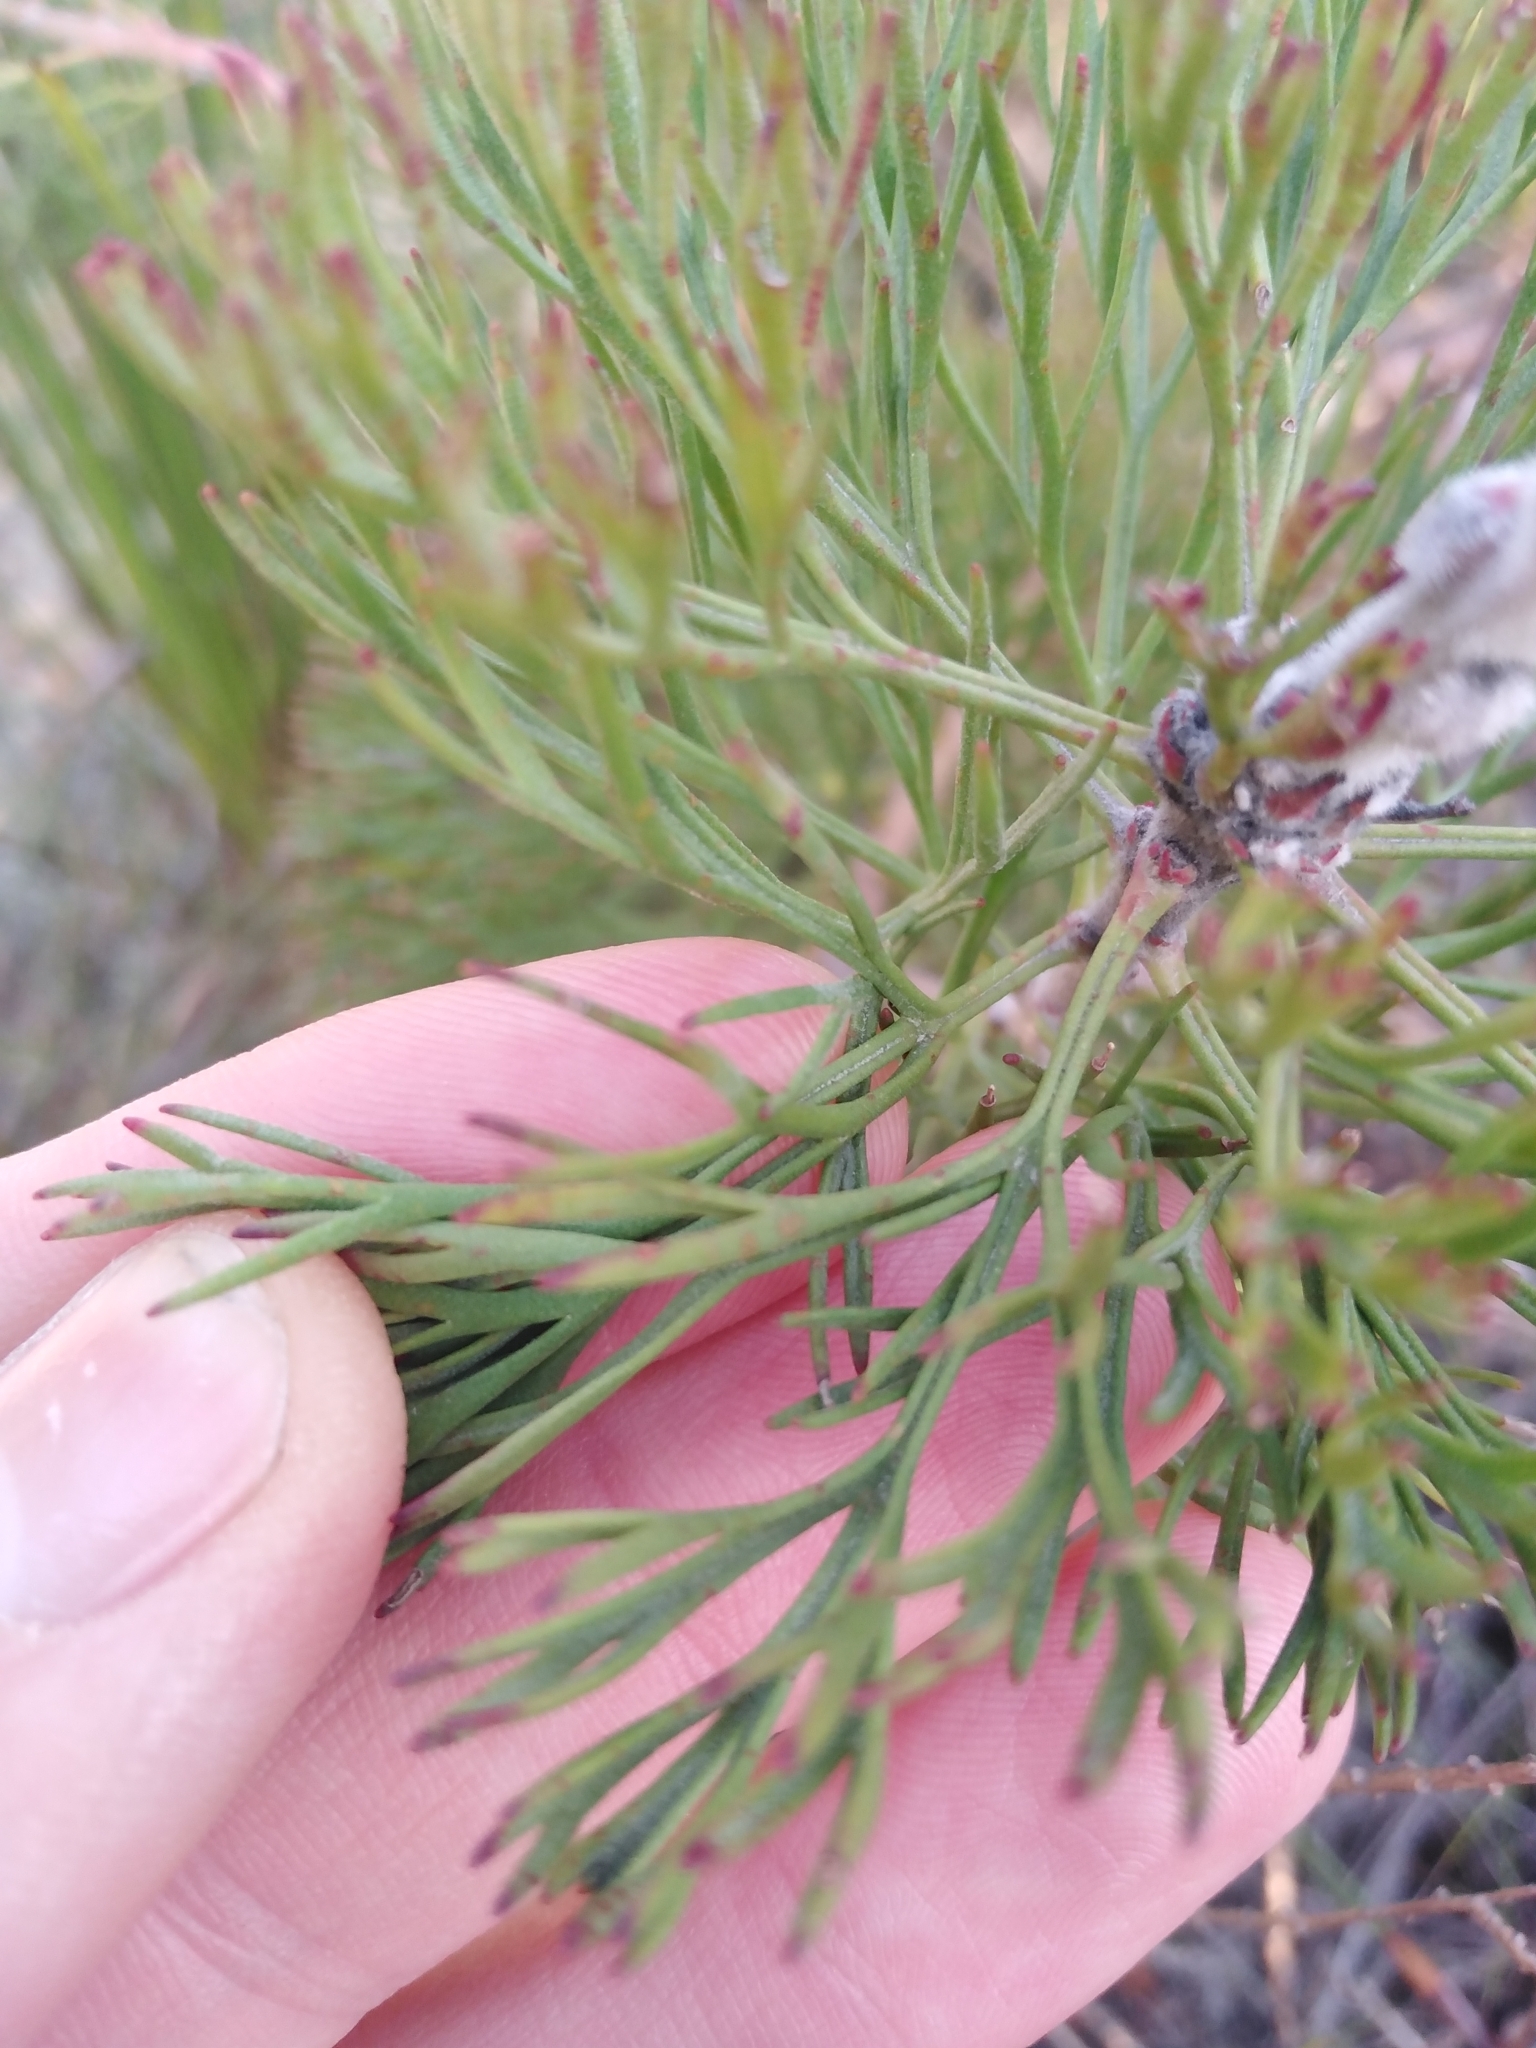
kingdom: Plantae
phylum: Tracheophyta
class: Magnoliopsida
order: Proteales
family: Proteaceae
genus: Paranomus
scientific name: Paranomus bolusii
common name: Overberg sceptre
